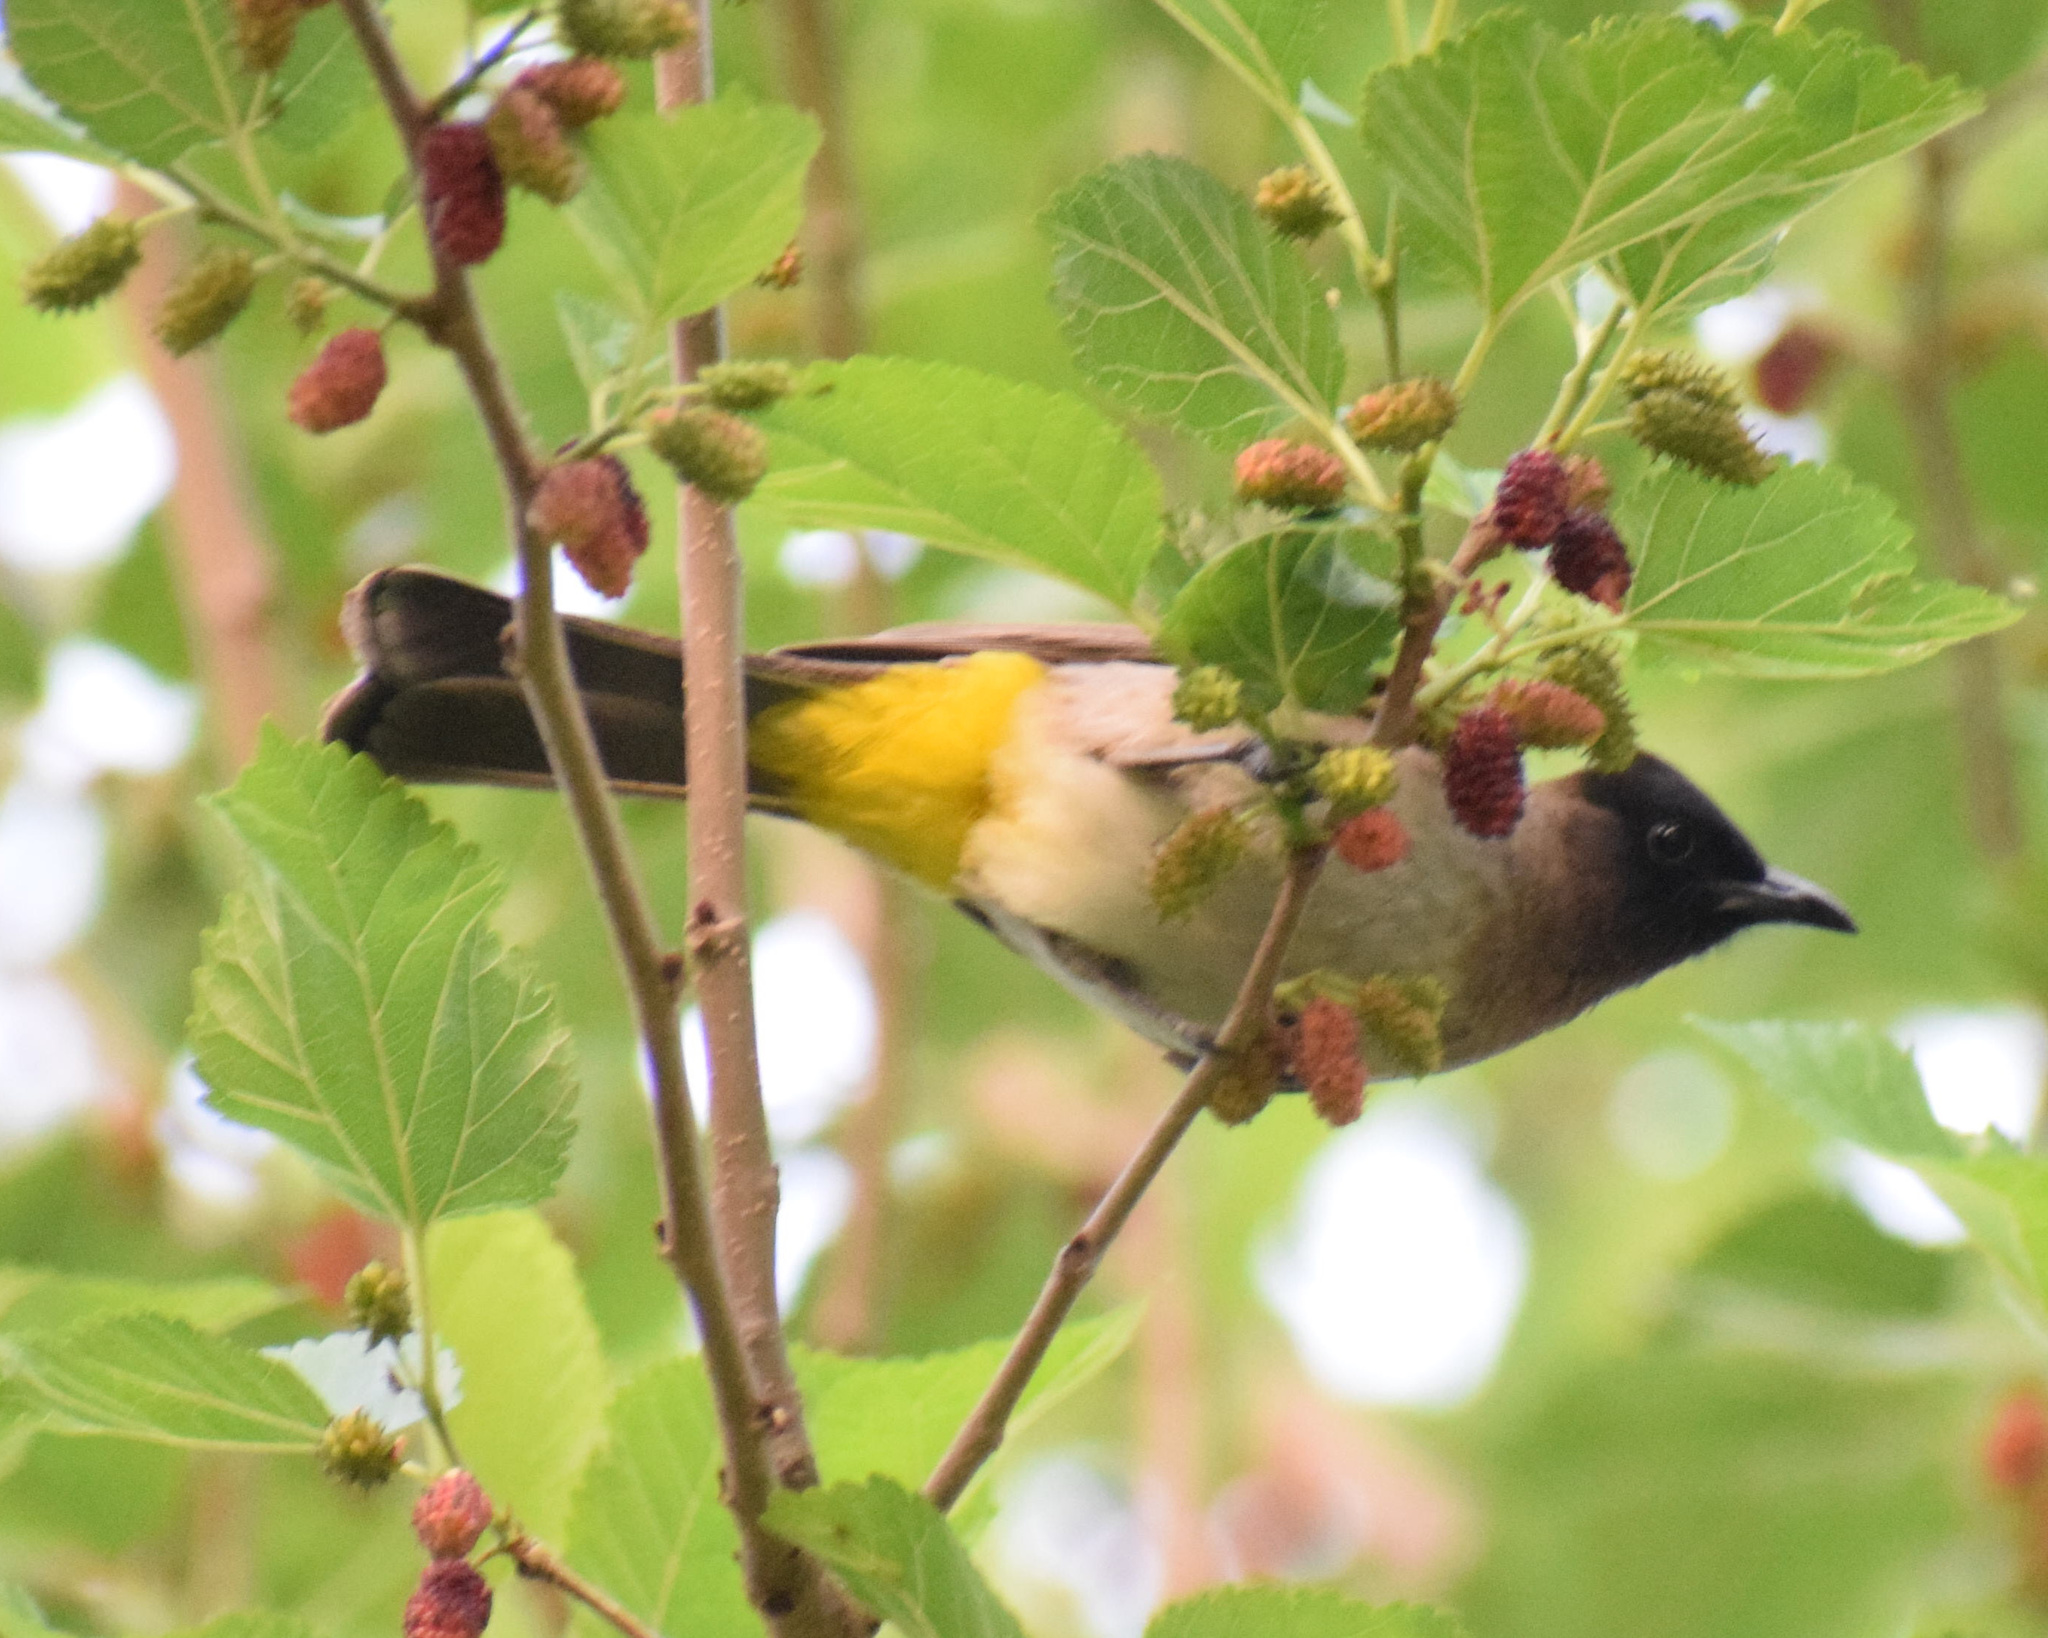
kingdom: Animalia
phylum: Chordata
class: Aves
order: Passeriformes
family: Pycnonotidae
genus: Pycnonotus
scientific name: Pycnonotus barbatus
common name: Common bulbul
